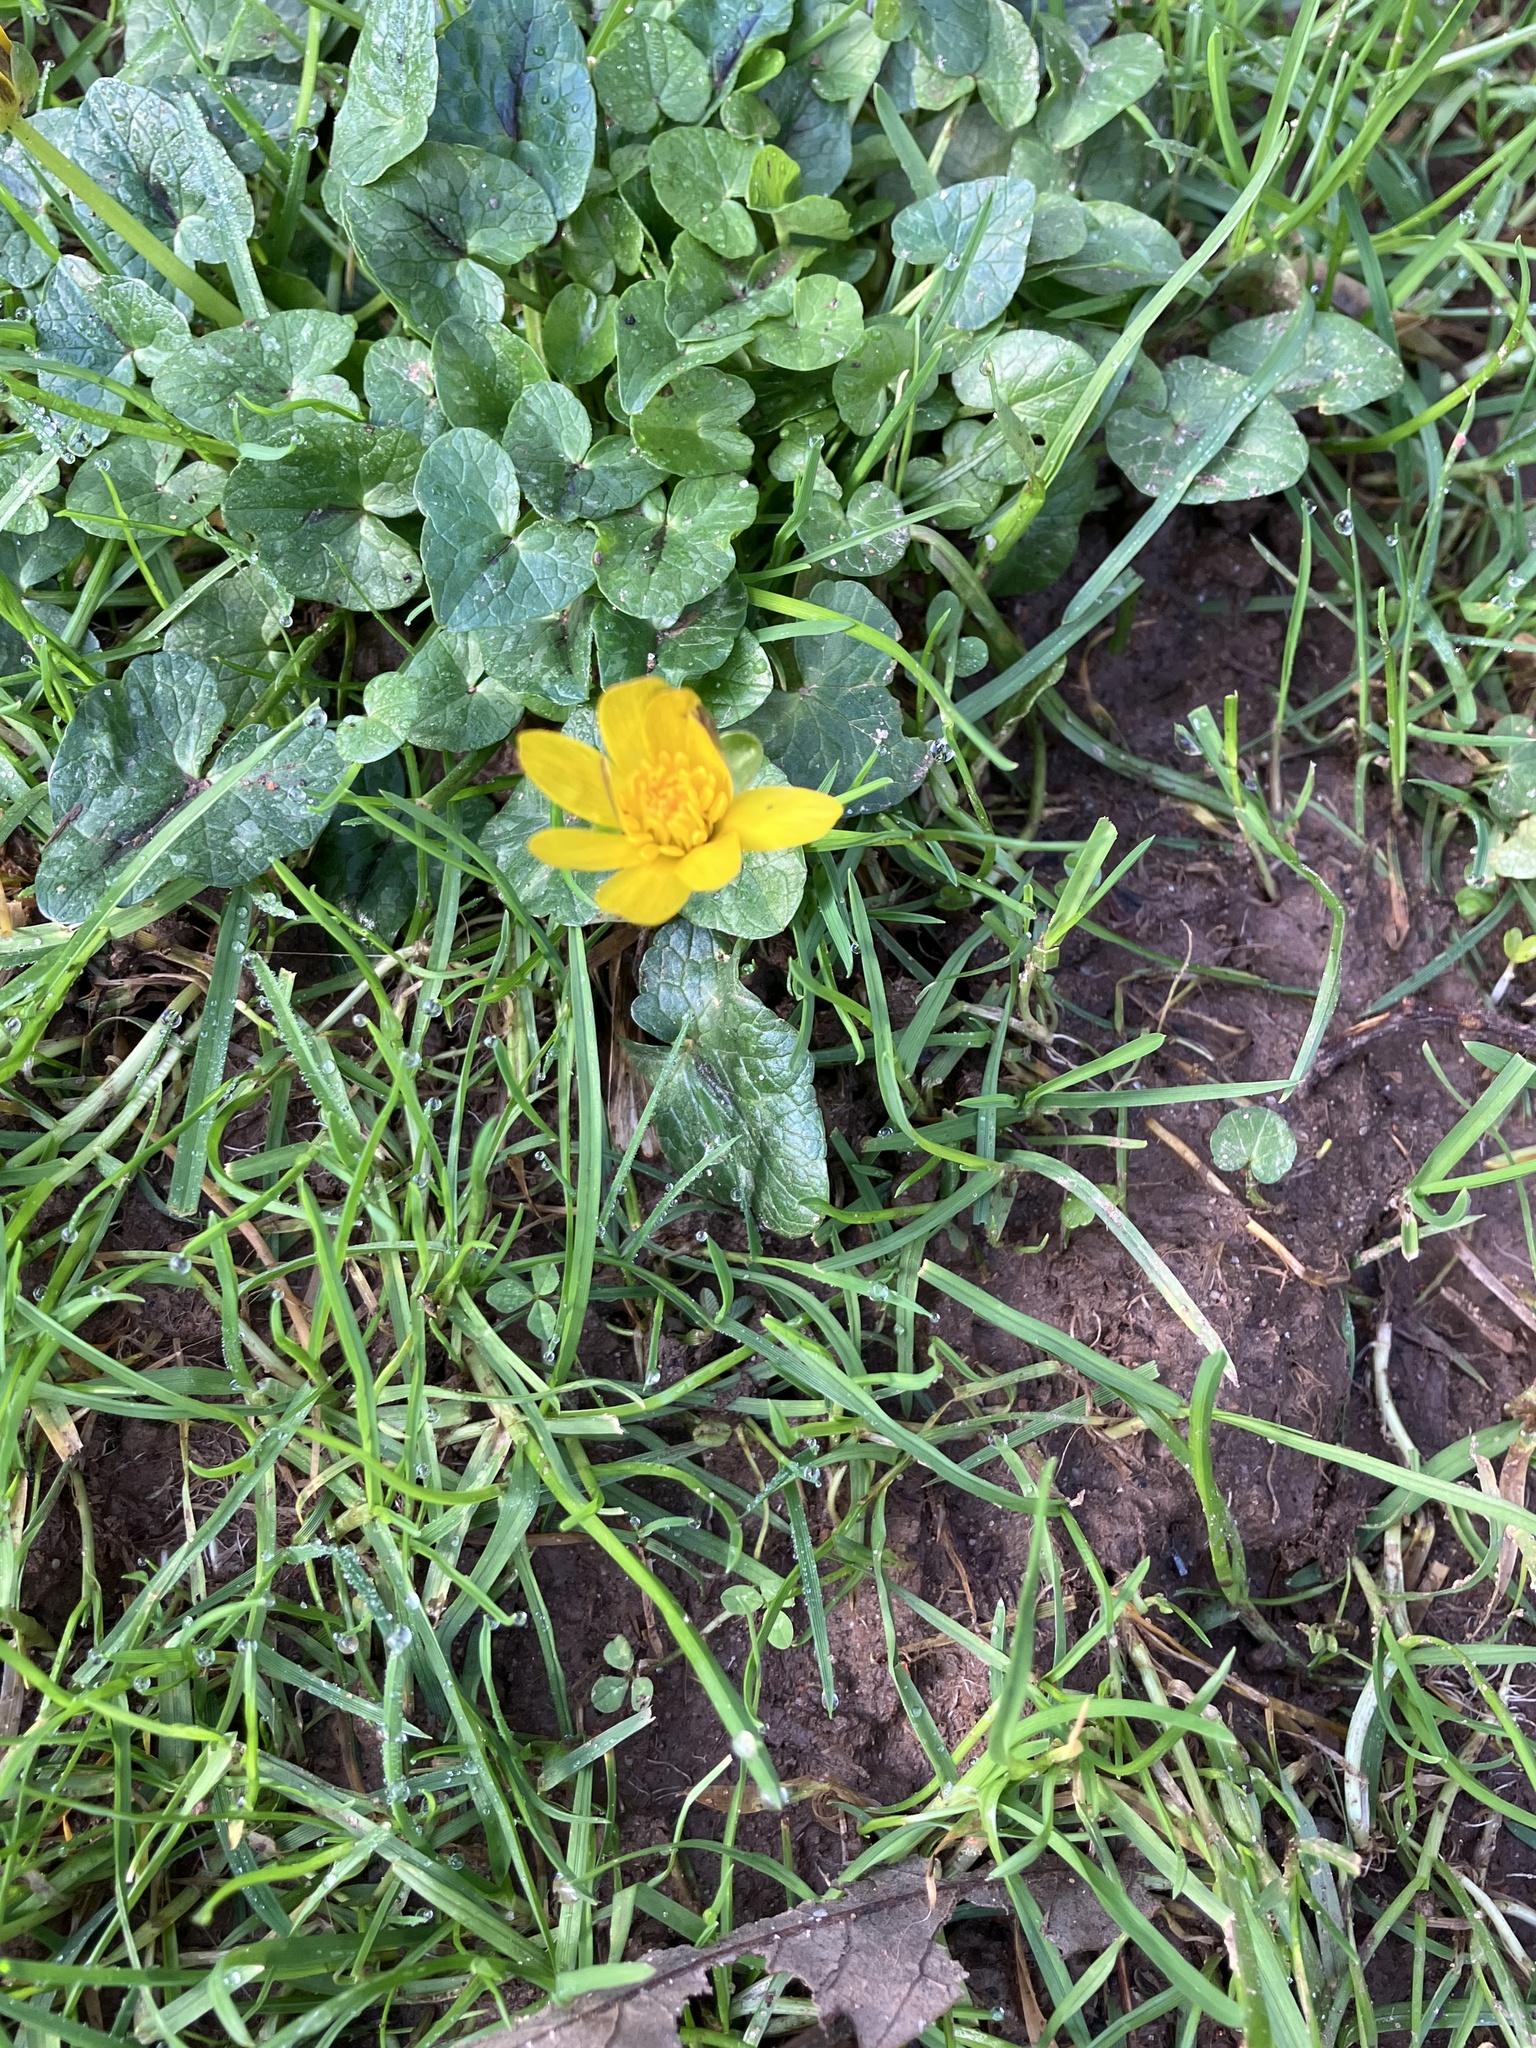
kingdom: Plantae
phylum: Tracheophyta
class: Magnoliopsida
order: Ranunculales
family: Ranunculaceae
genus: Ficaria
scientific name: Ficaria verna
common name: Lesser celandine
